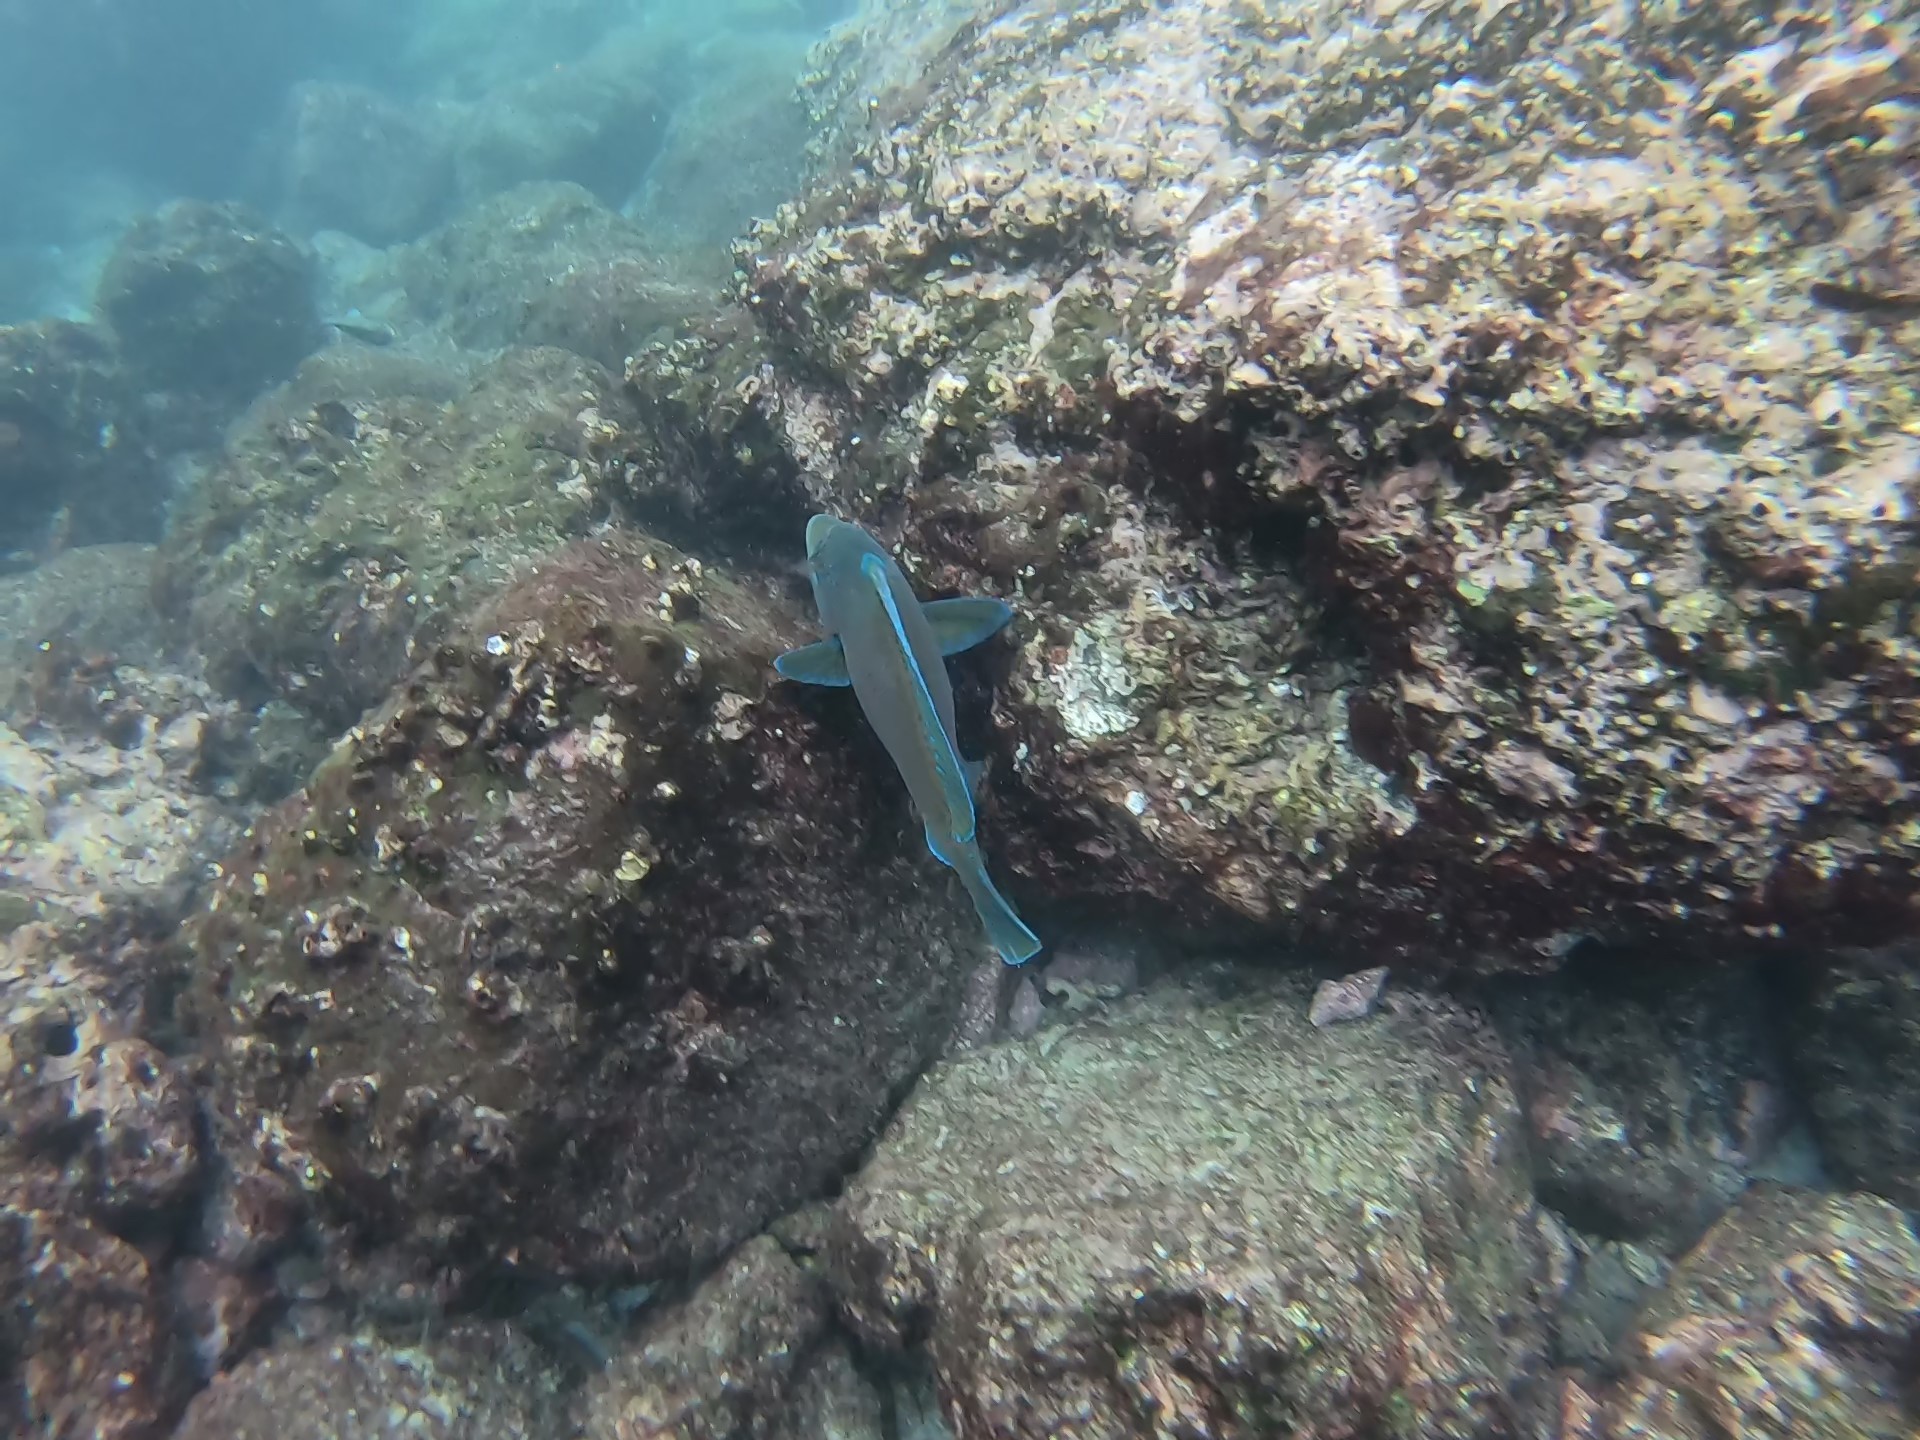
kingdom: Animalia
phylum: Chordata
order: Perciformes
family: Scaridae
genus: Scarus
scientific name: Scarus perrico
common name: Bumphead parrotfish
